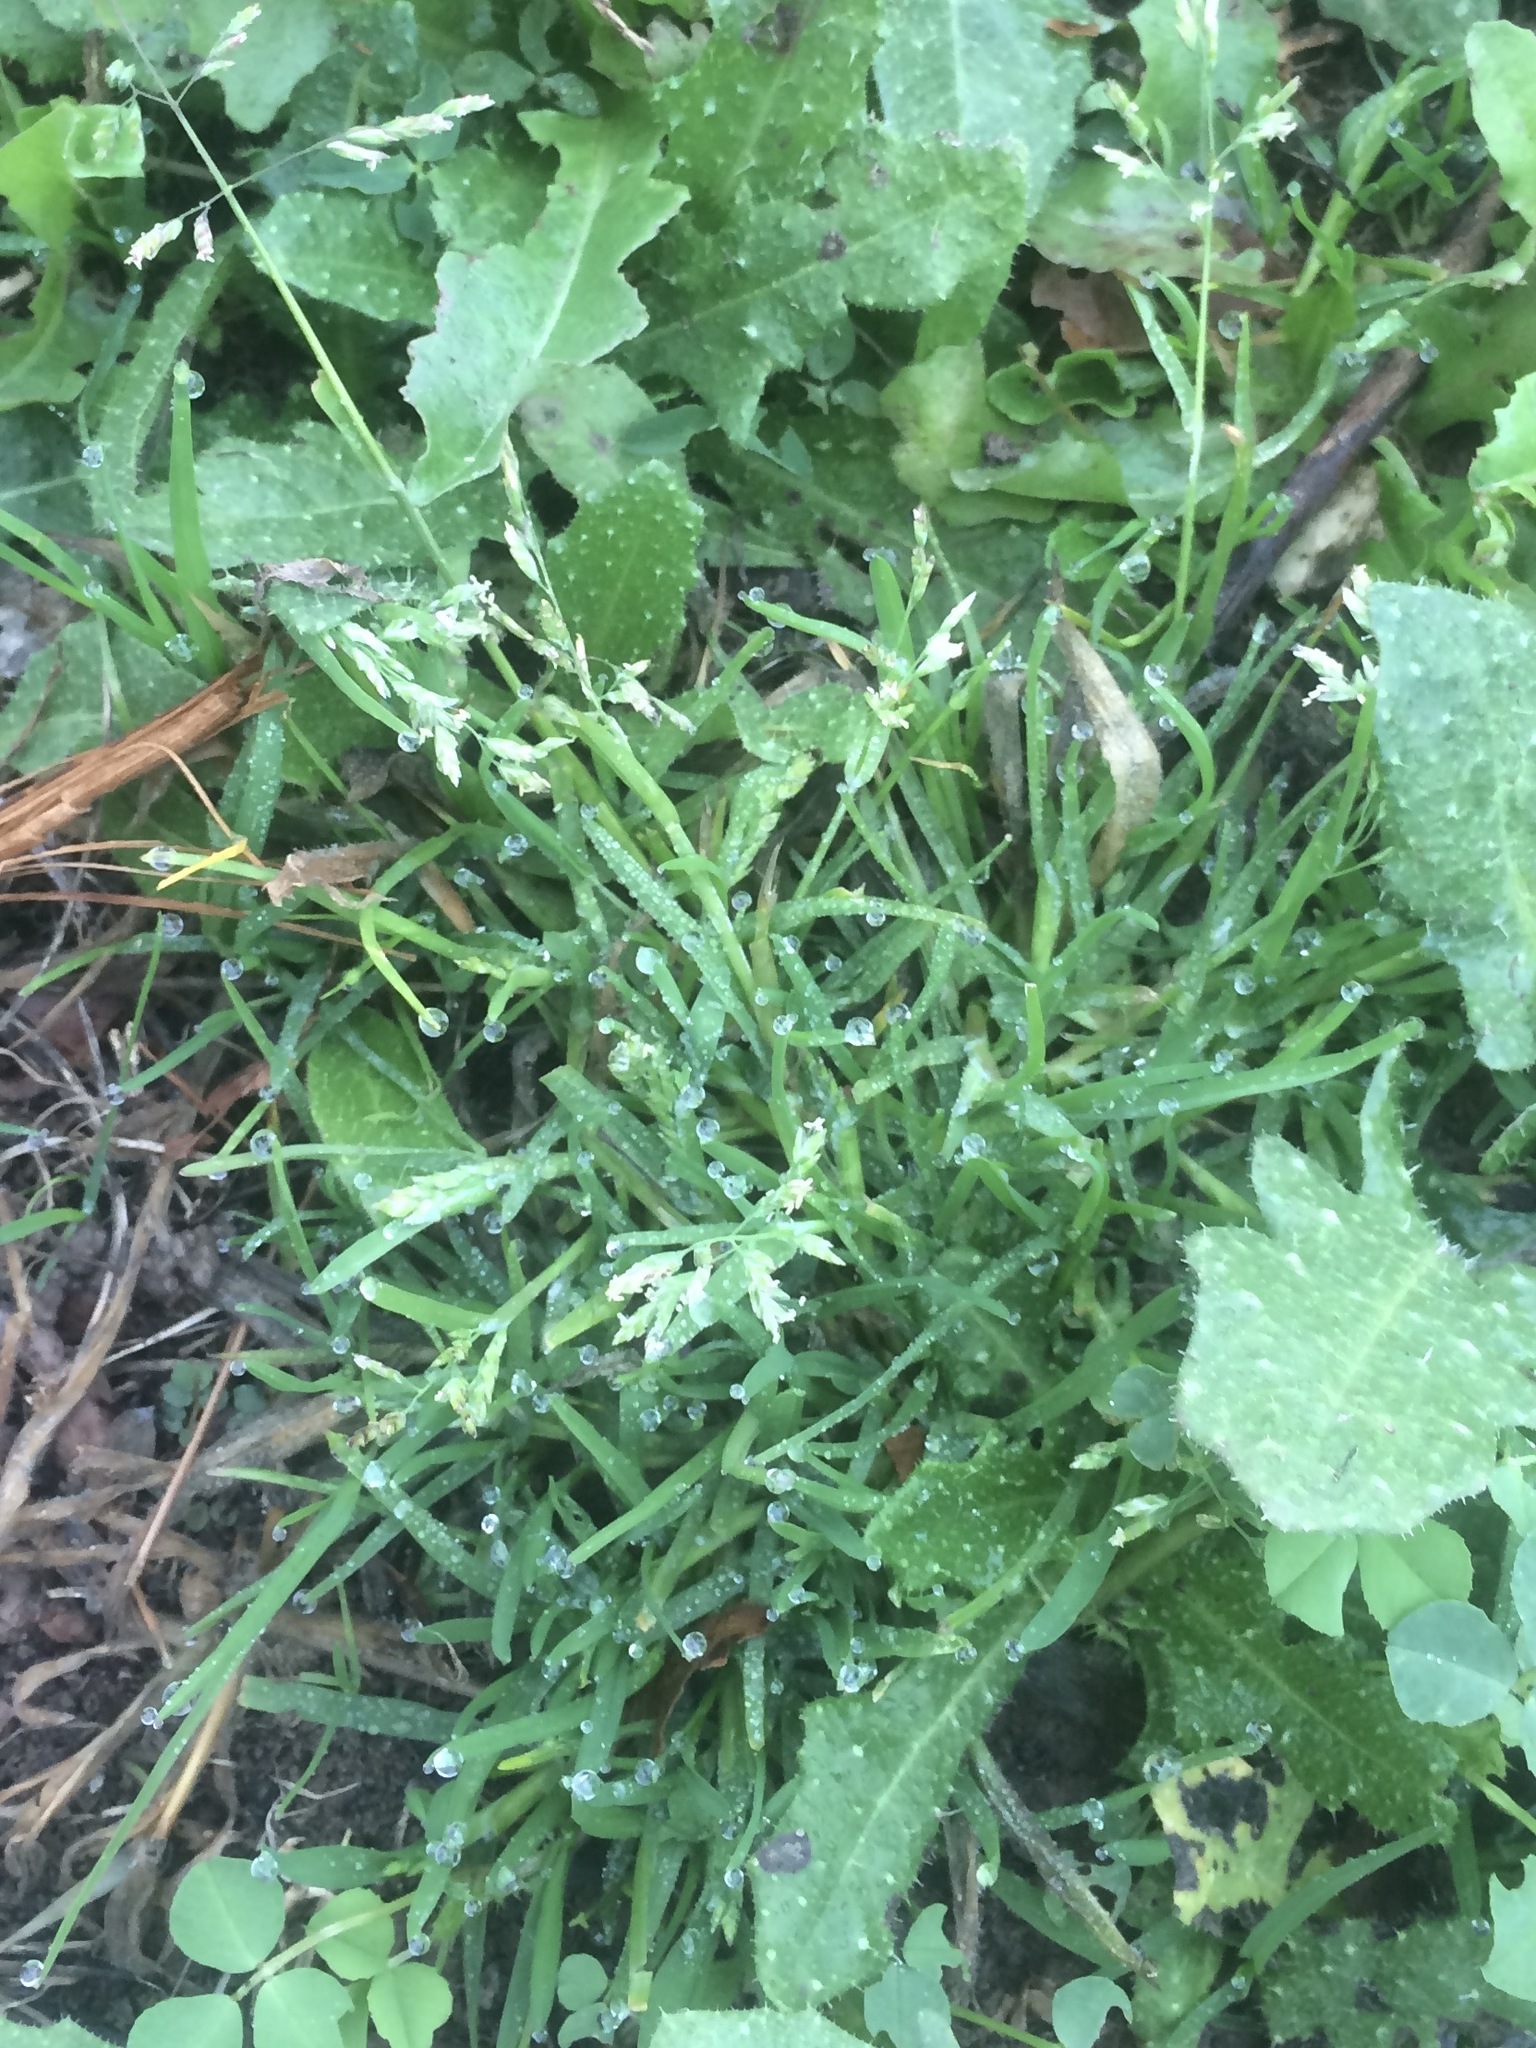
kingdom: Plantae
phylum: Tracheophyta
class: Liliopsida
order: Poales
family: Poaceae
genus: Poa
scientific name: Poa annua
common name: Annual bluegrass
